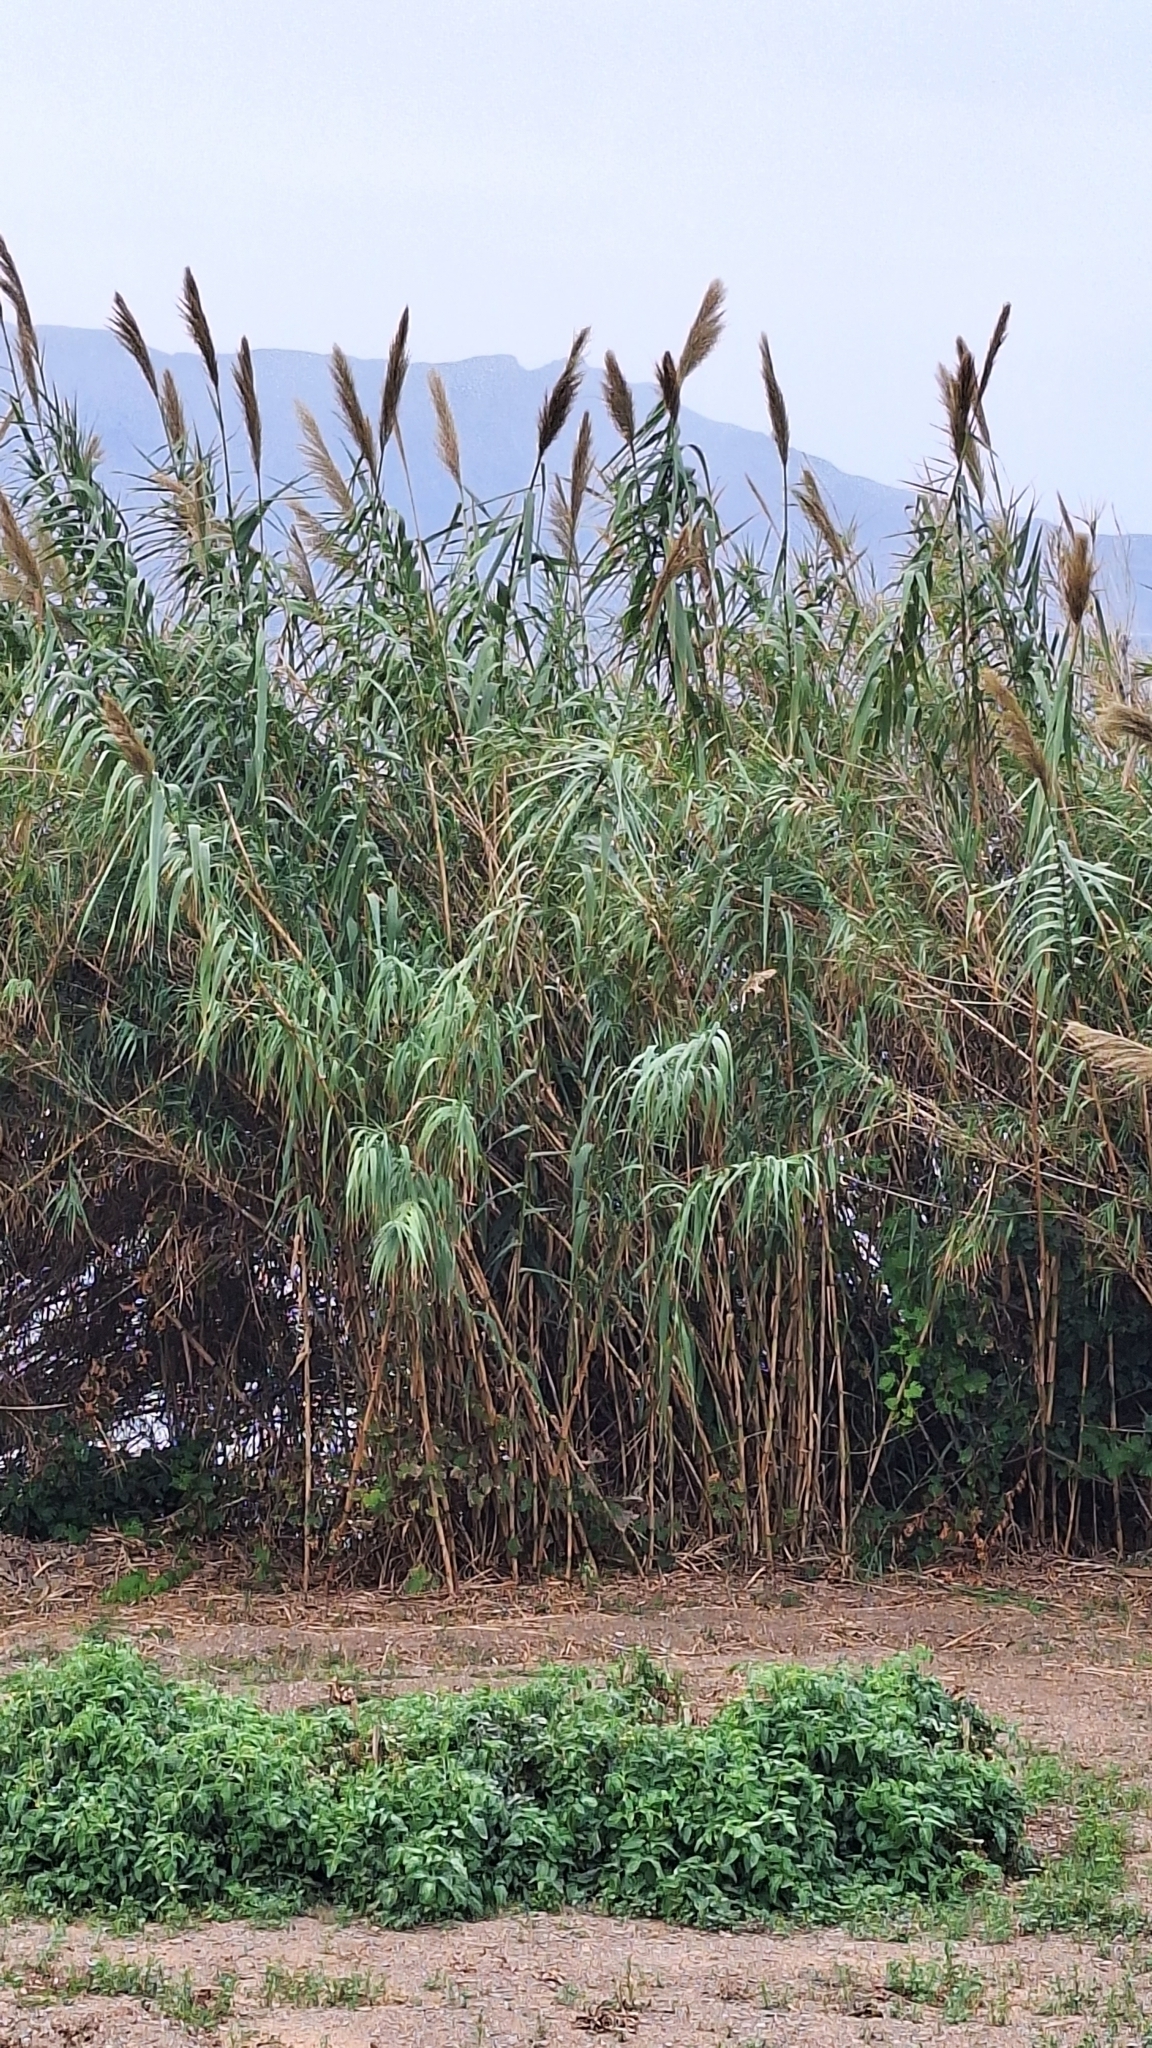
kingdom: Plantae
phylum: Tracheophyta
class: Liliopsida
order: Poales
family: Poaceae
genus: Arundo
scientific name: Arundo donax
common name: Giant reed
